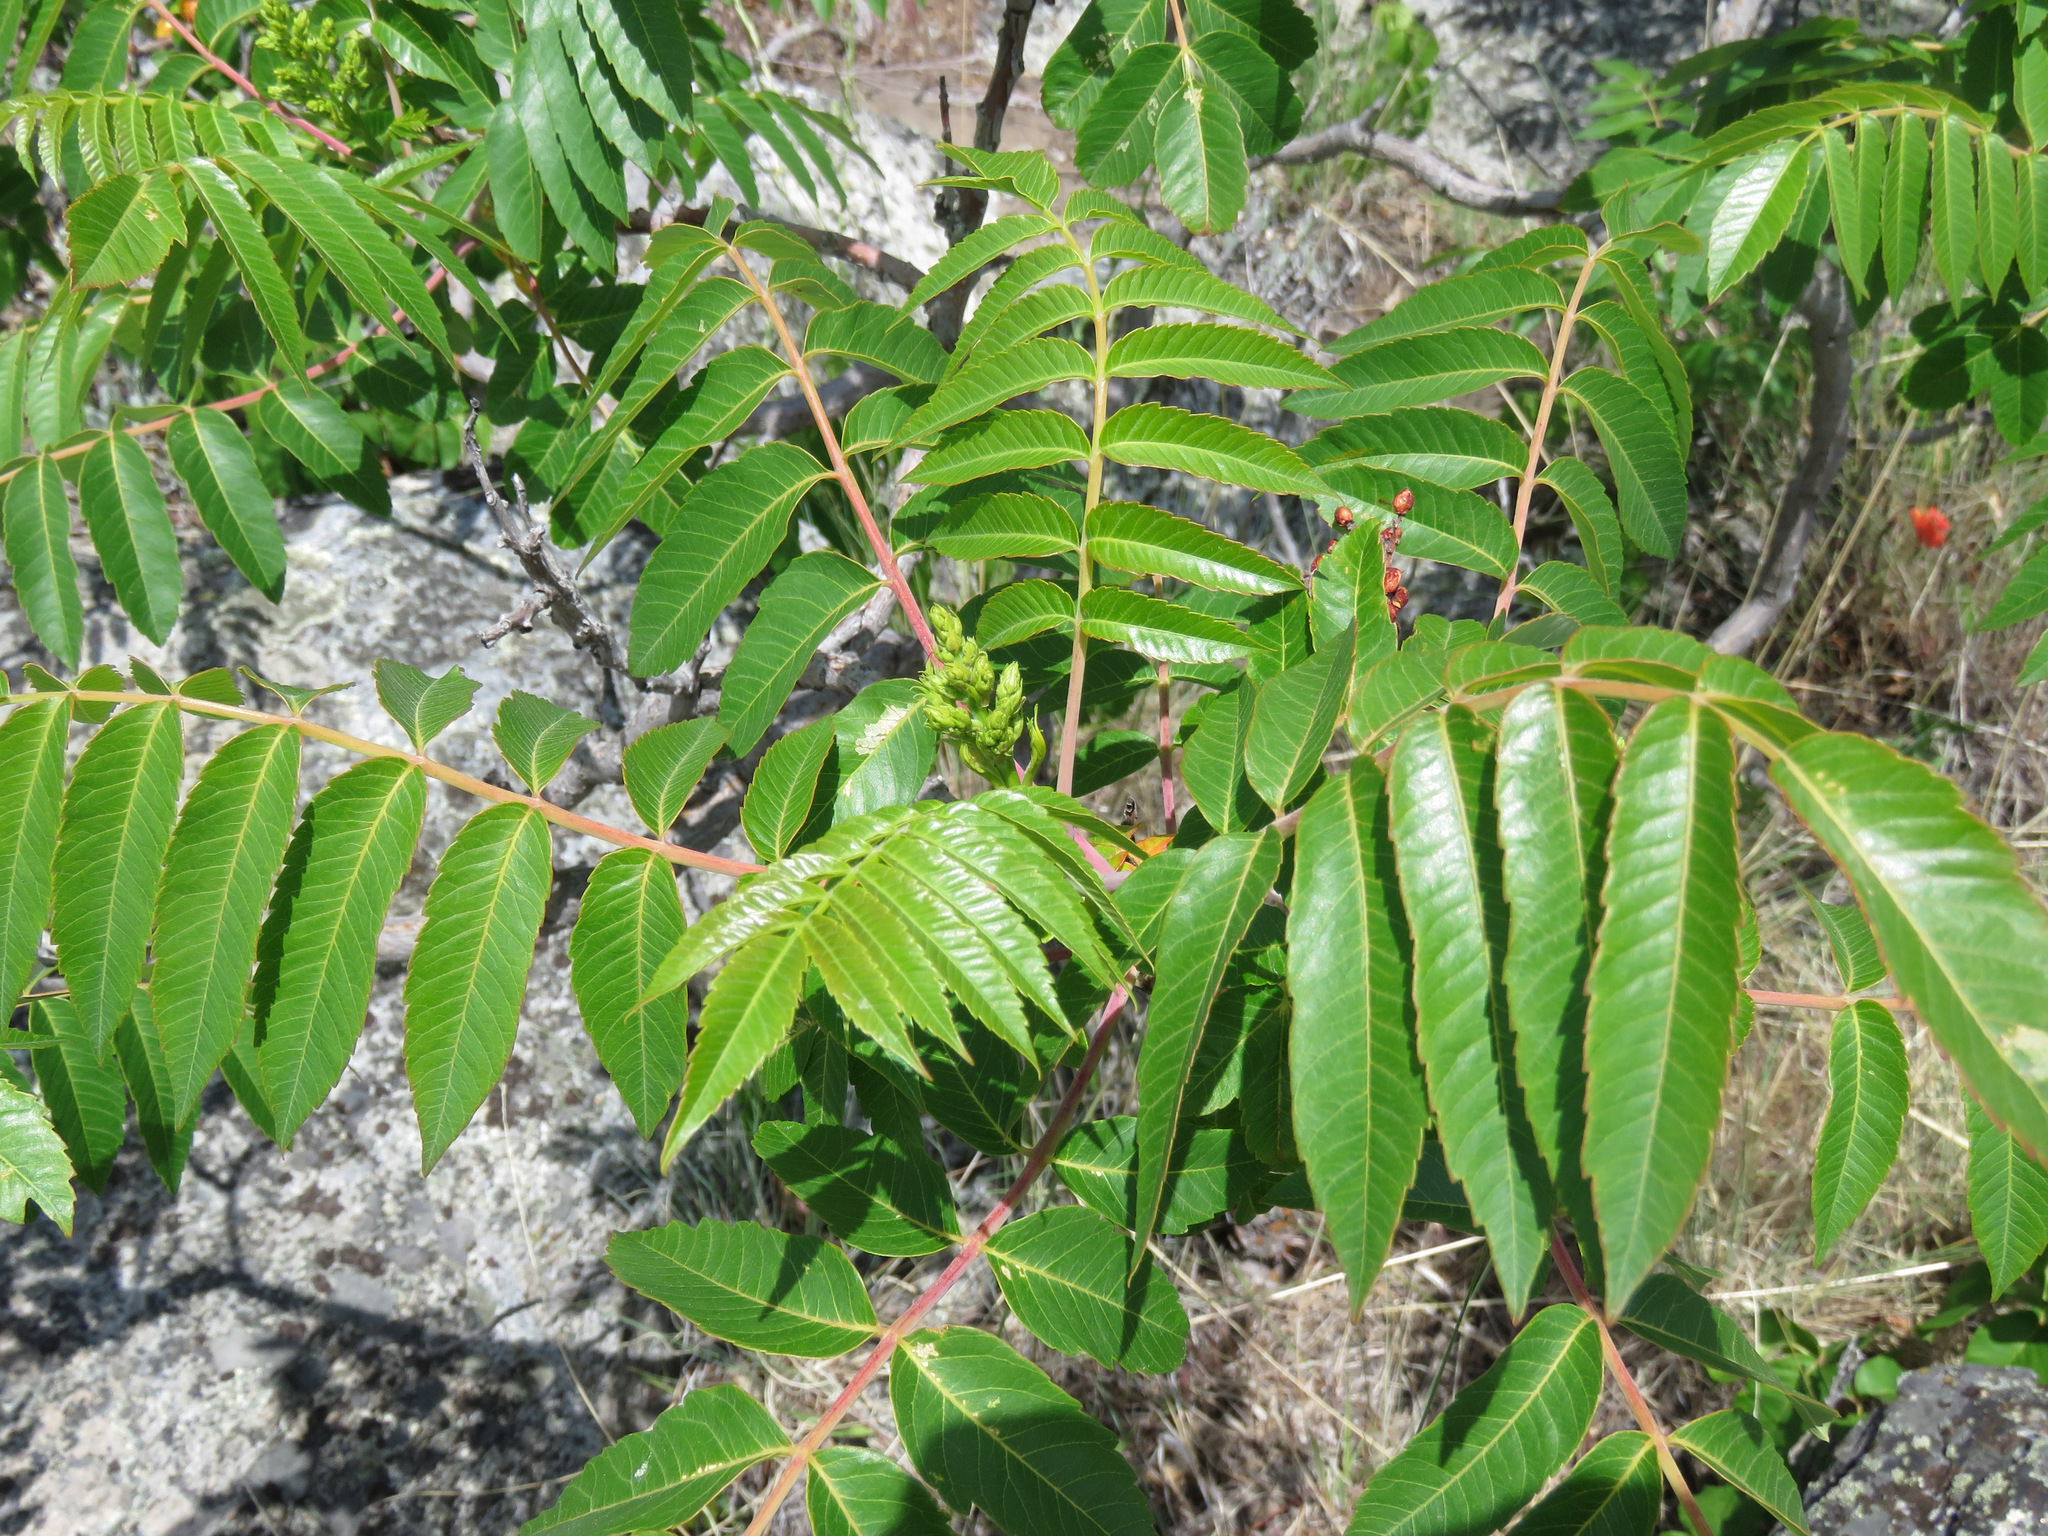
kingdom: Plantae
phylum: Tracheophyta
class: Magnoliopsida
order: Sapindales
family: Anacardiaceae
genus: Rhus
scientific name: Rhus glabra
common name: Scarlet sumac
